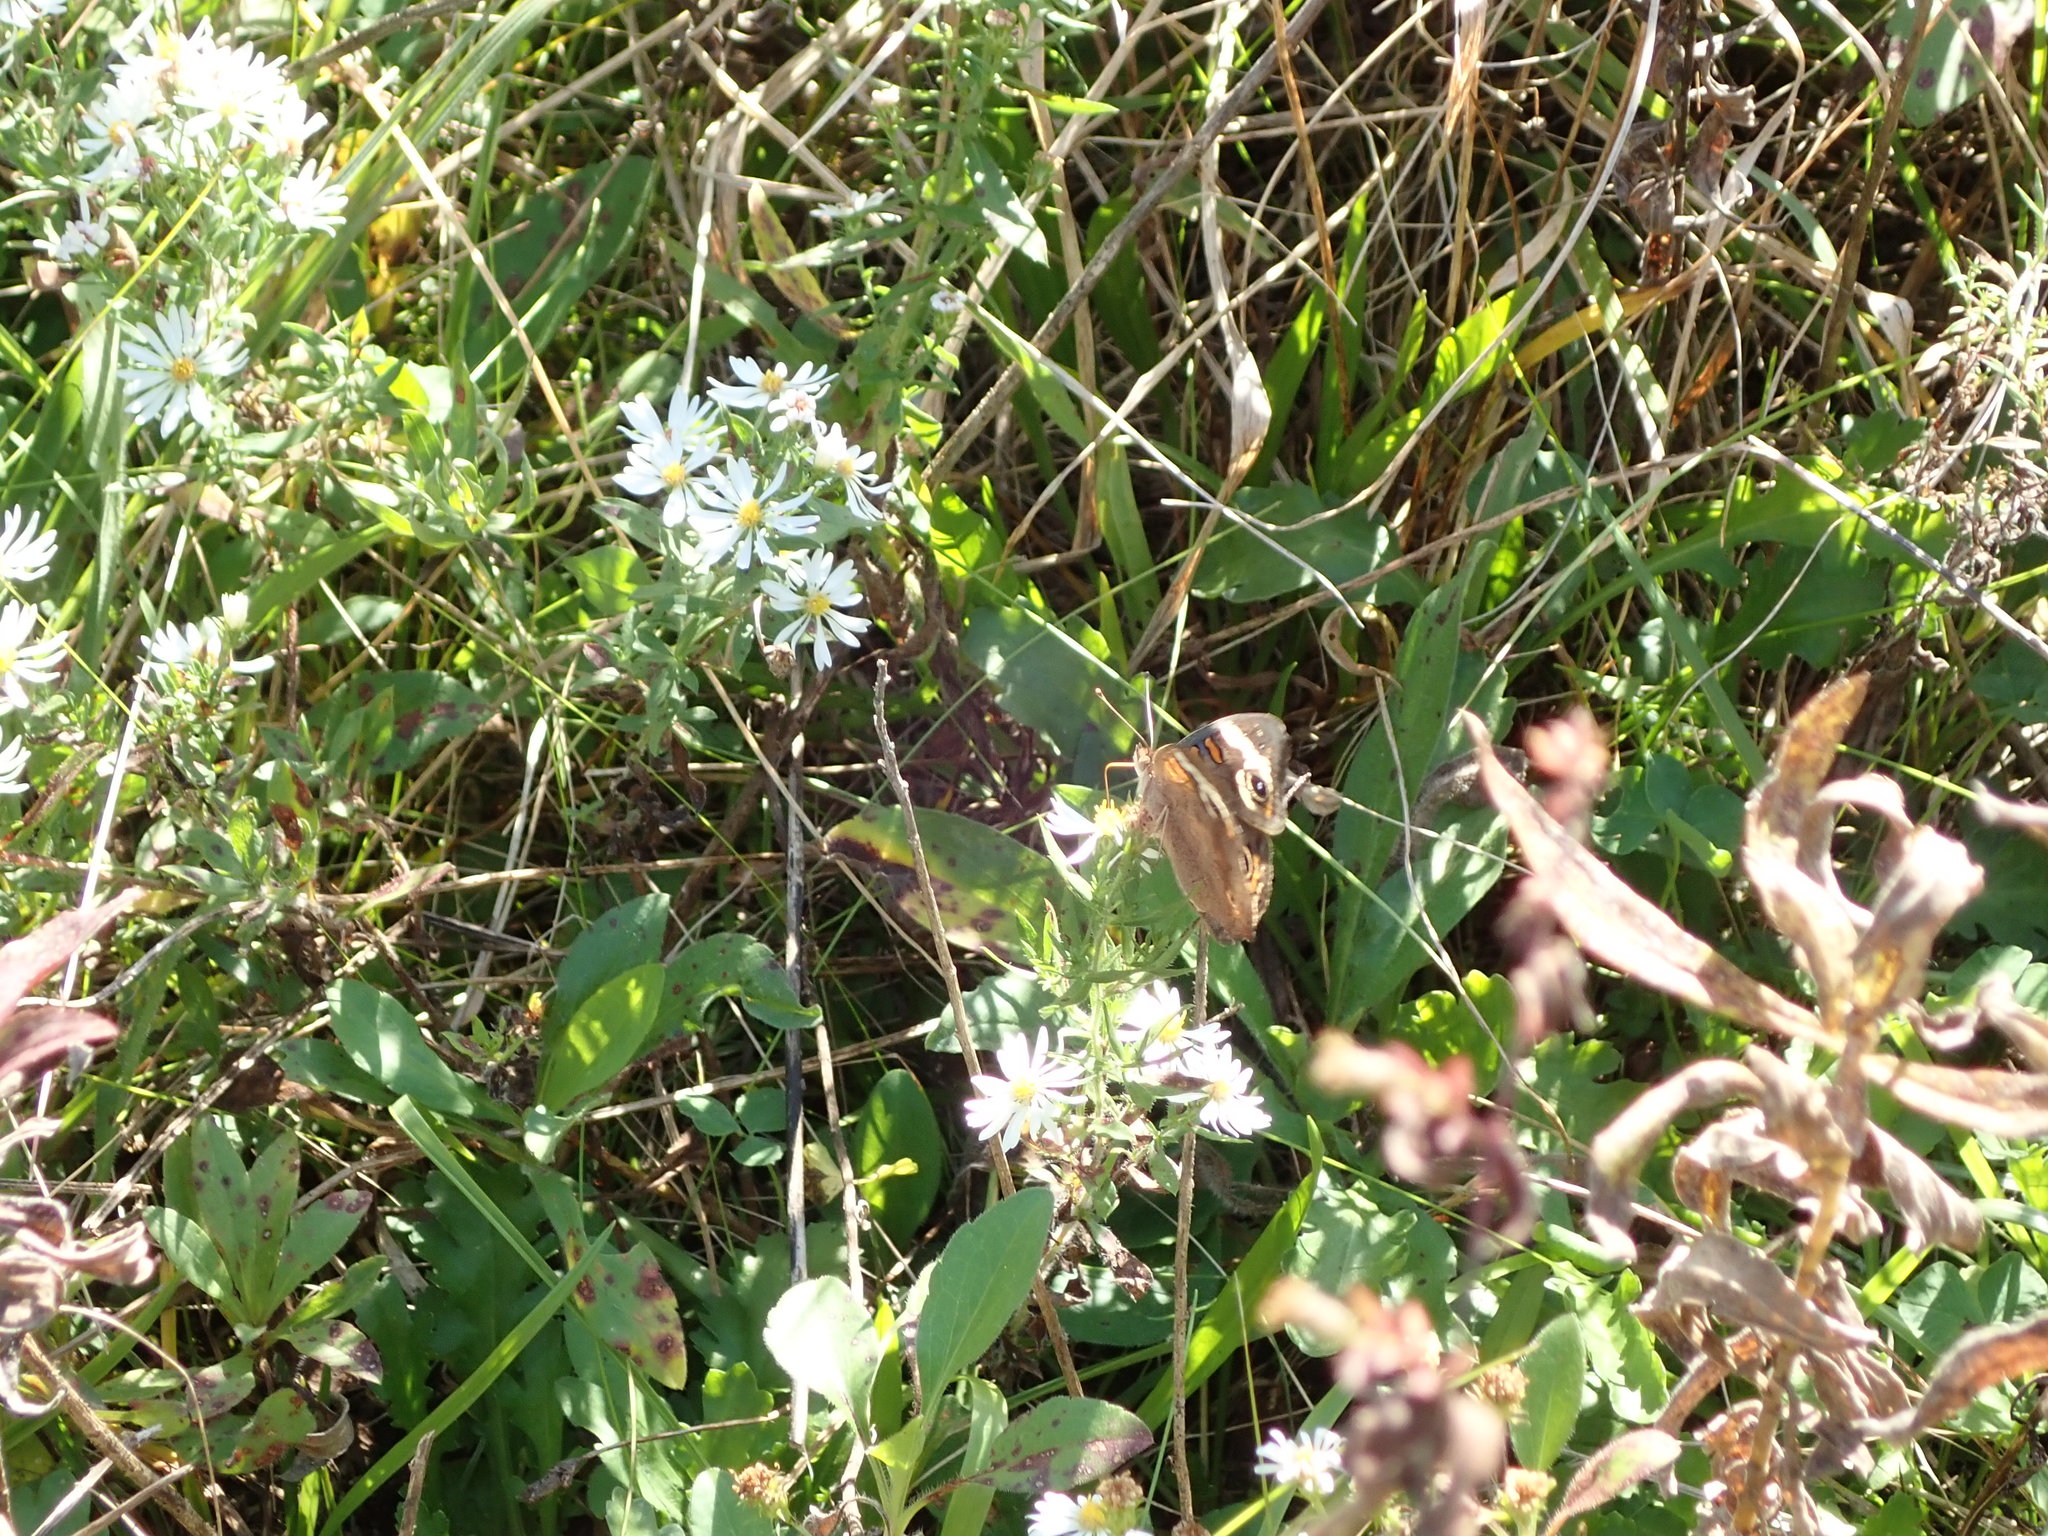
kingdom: Animalia
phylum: Arthropoda
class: Insecta
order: Lepidoptera
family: Nymphalidae
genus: Junonia
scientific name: Junonia coenia
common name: Common buckeye
